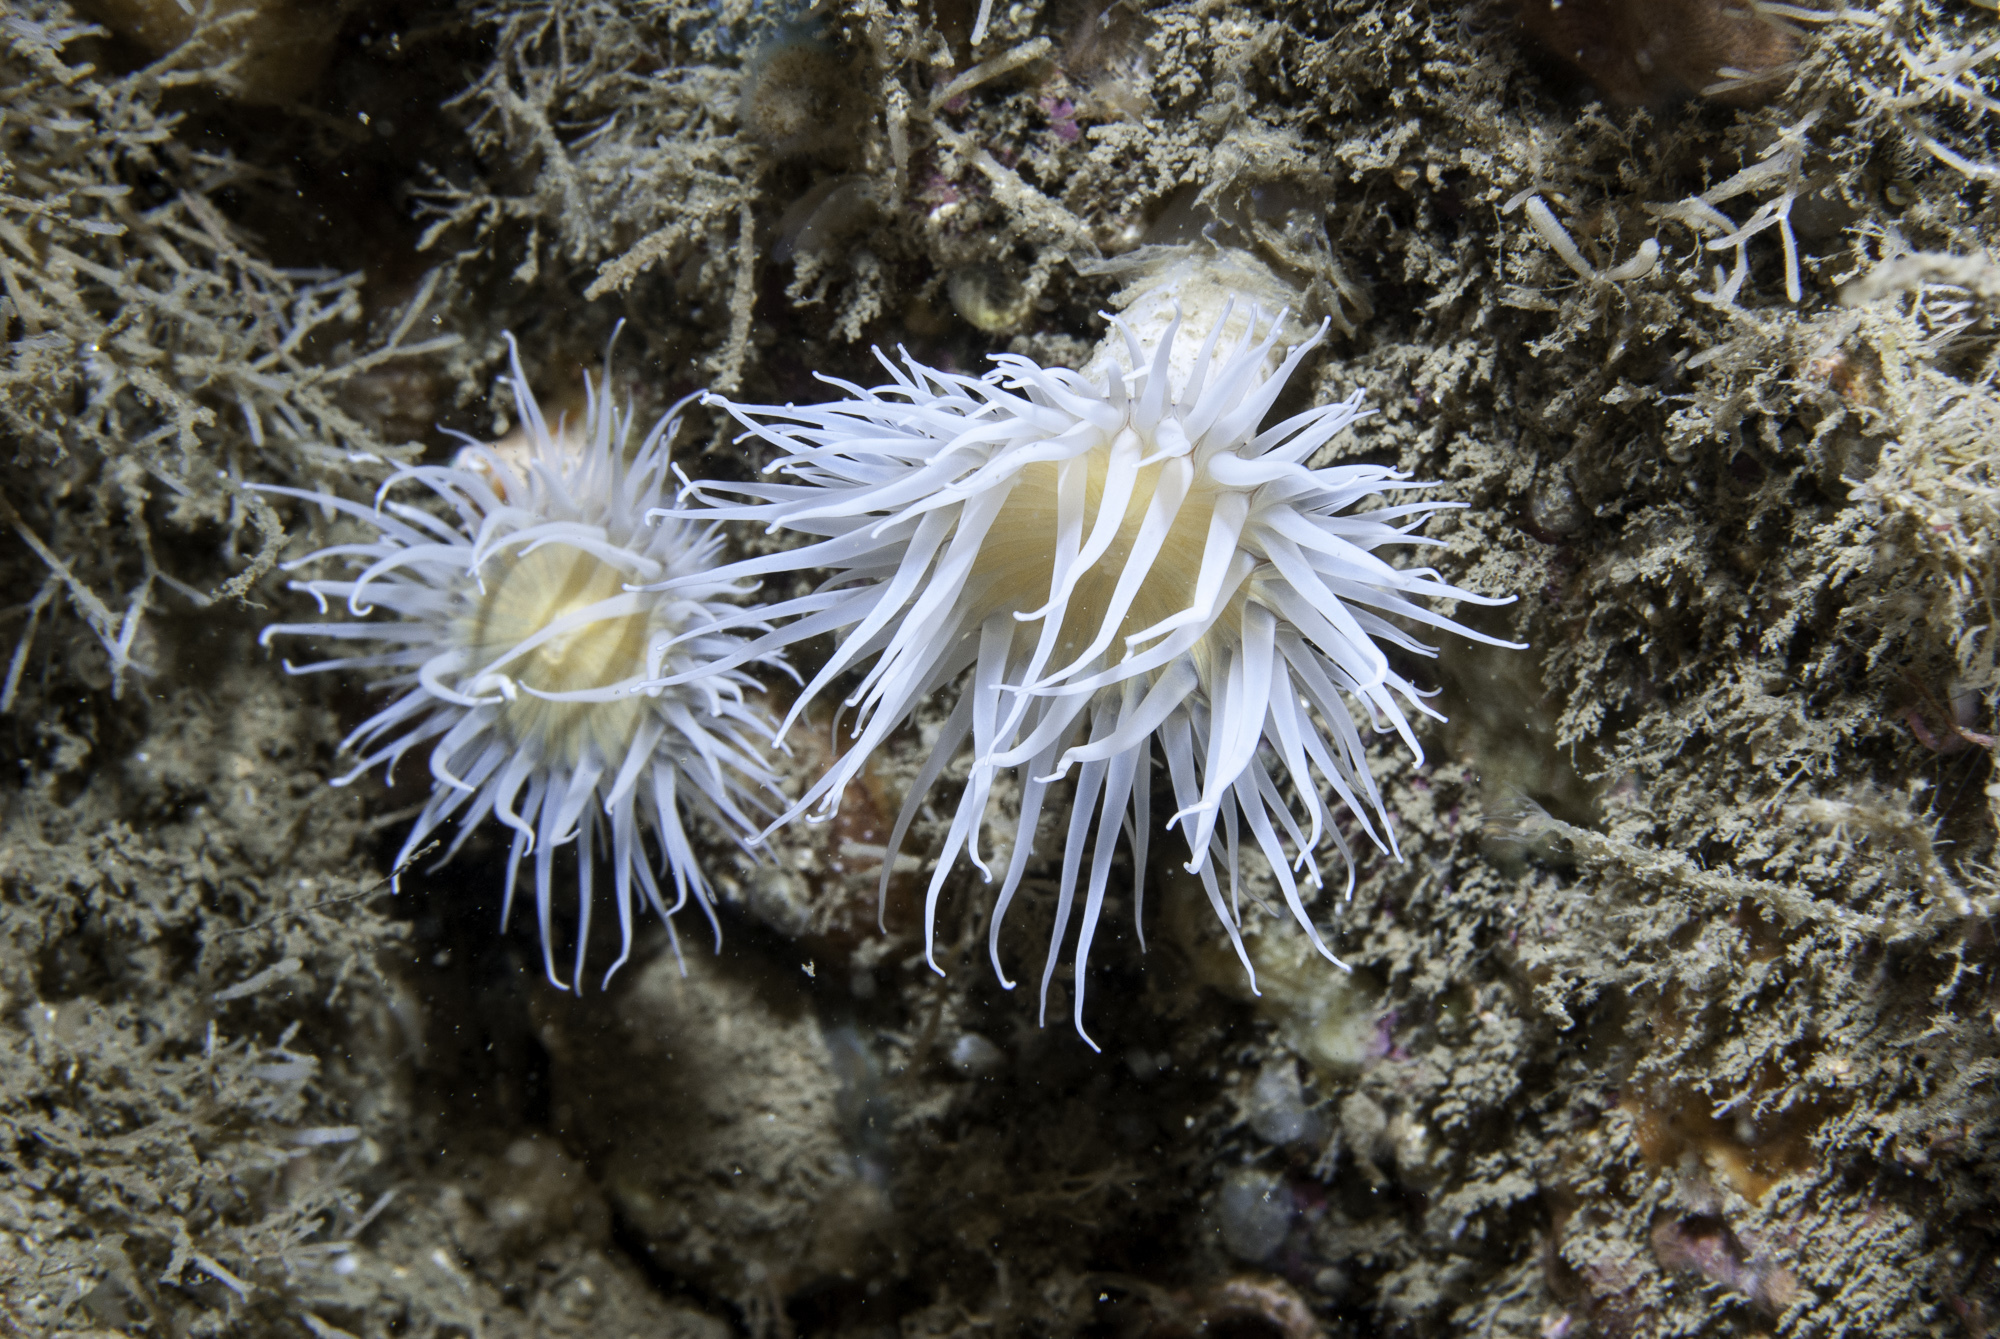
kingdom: Animalia
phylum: Cnidaria
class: Anthozoa
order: Actiniaria
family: Sagartiidae
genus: Actinothoe
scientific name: Actinothoe sphyrodeta
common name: Sandalled anemone
